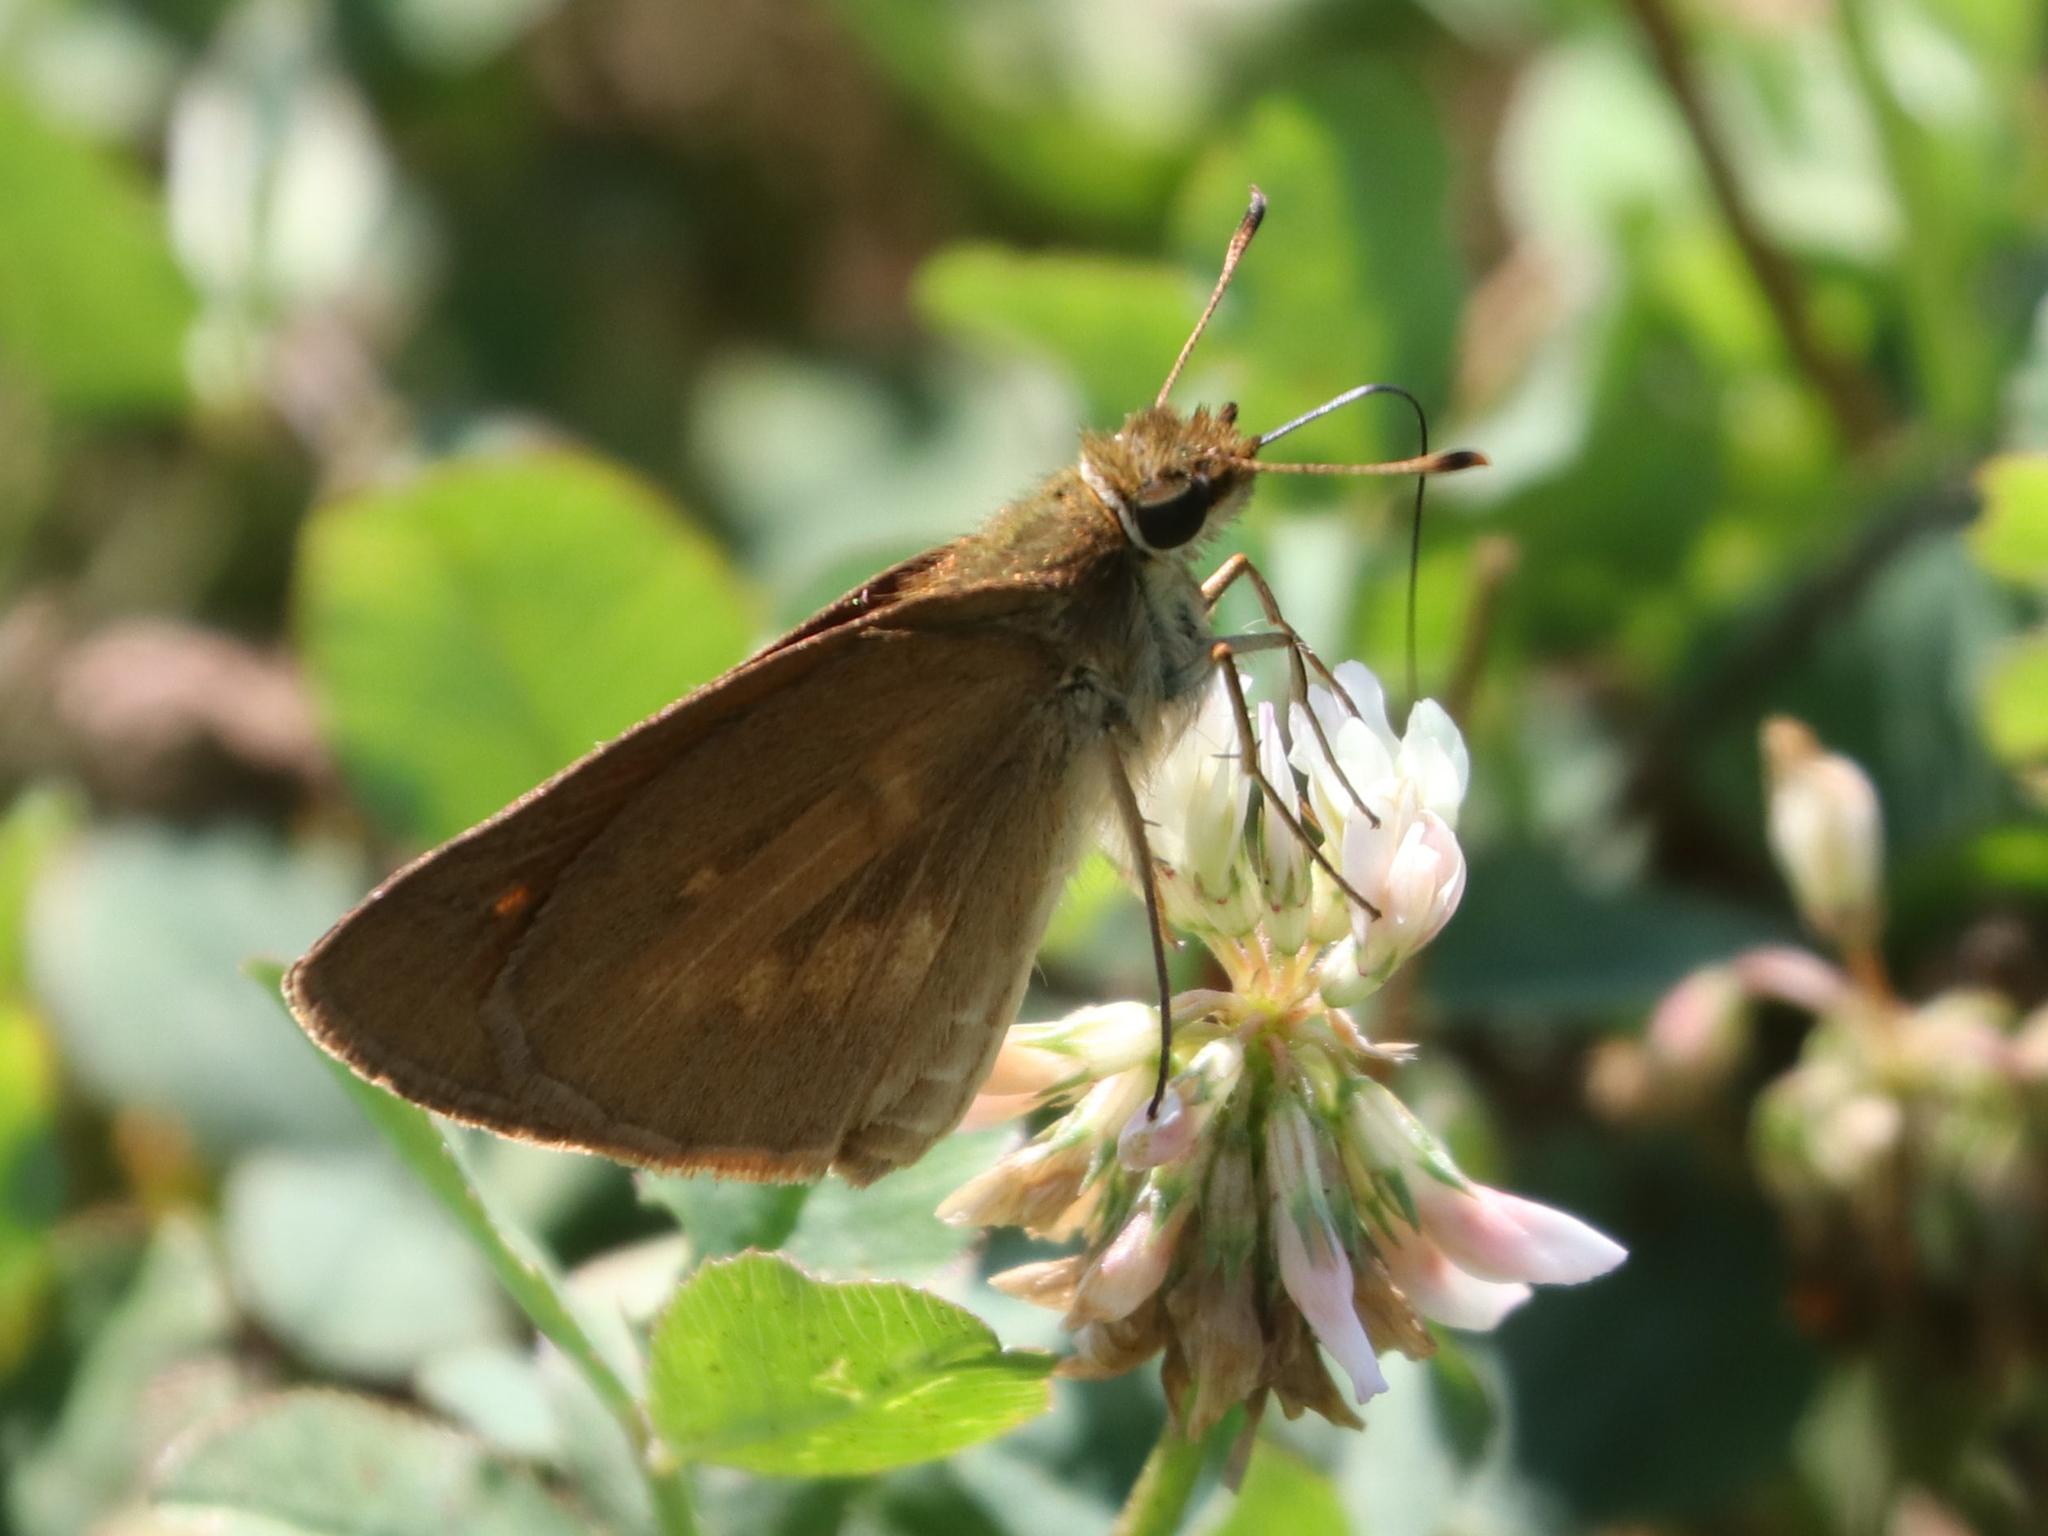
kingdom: Animalia
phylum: Arthropoda
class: Insecta
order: Lepidoptera
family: Hesperiidae
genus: Poanes
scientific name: Poanes viator
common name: Broad-winged skipper
